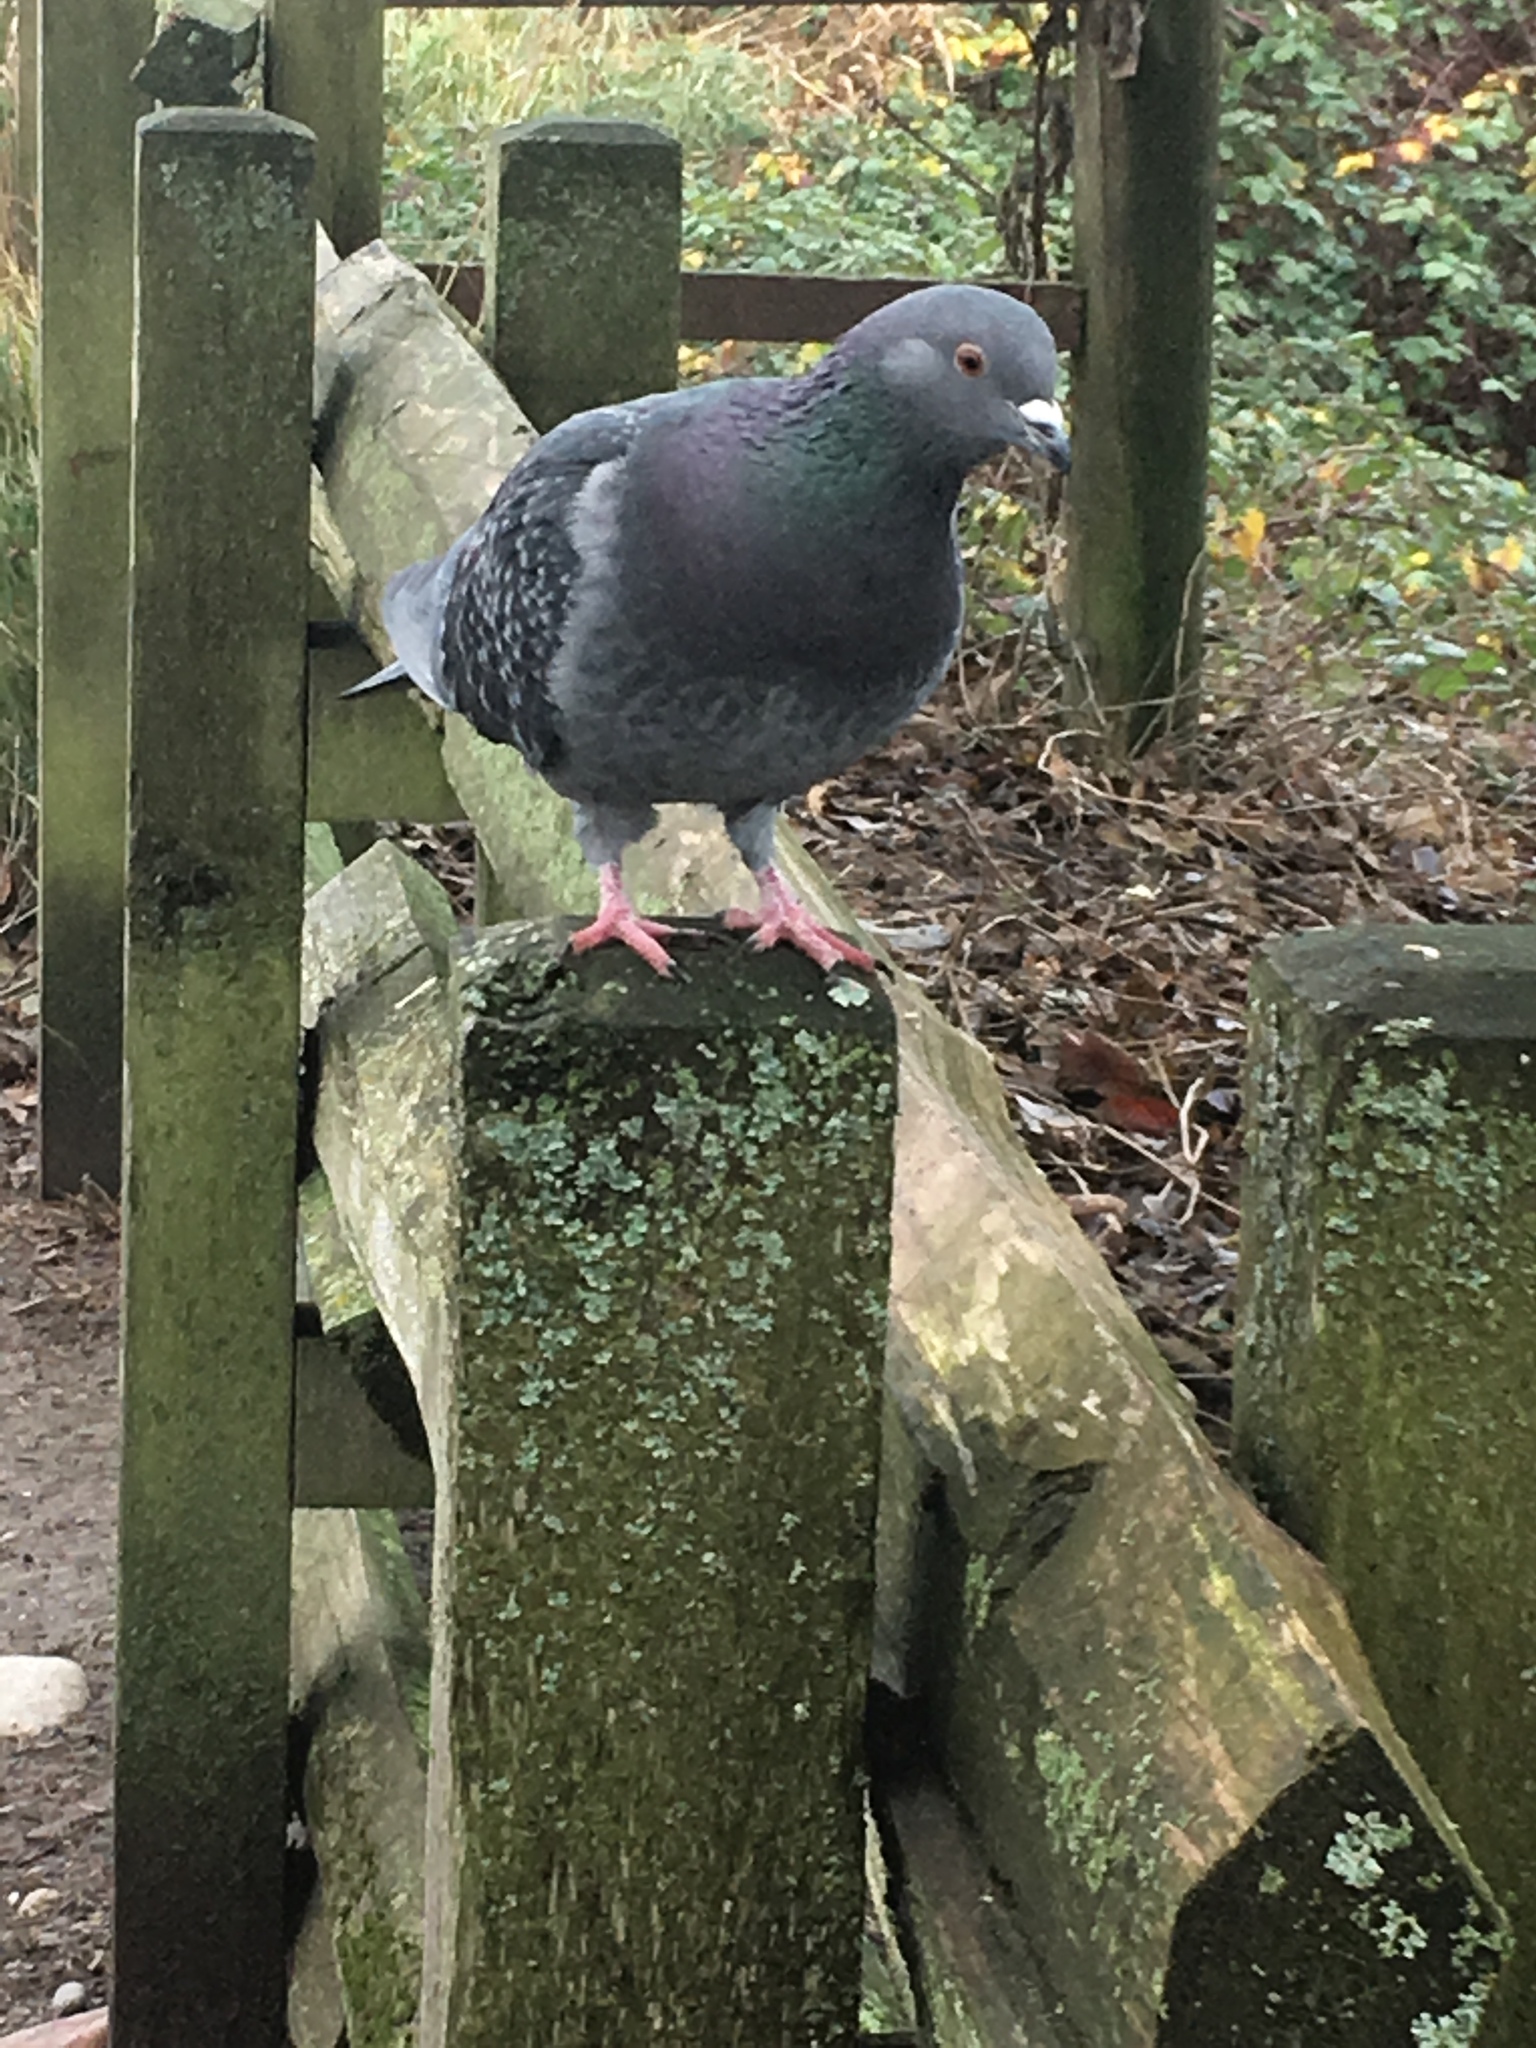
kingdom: Animalia
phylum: Chordata
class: Aves
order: Columbiformes
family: Columbidae
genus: Columba
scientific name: Columba livia
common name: Rock pigeon
